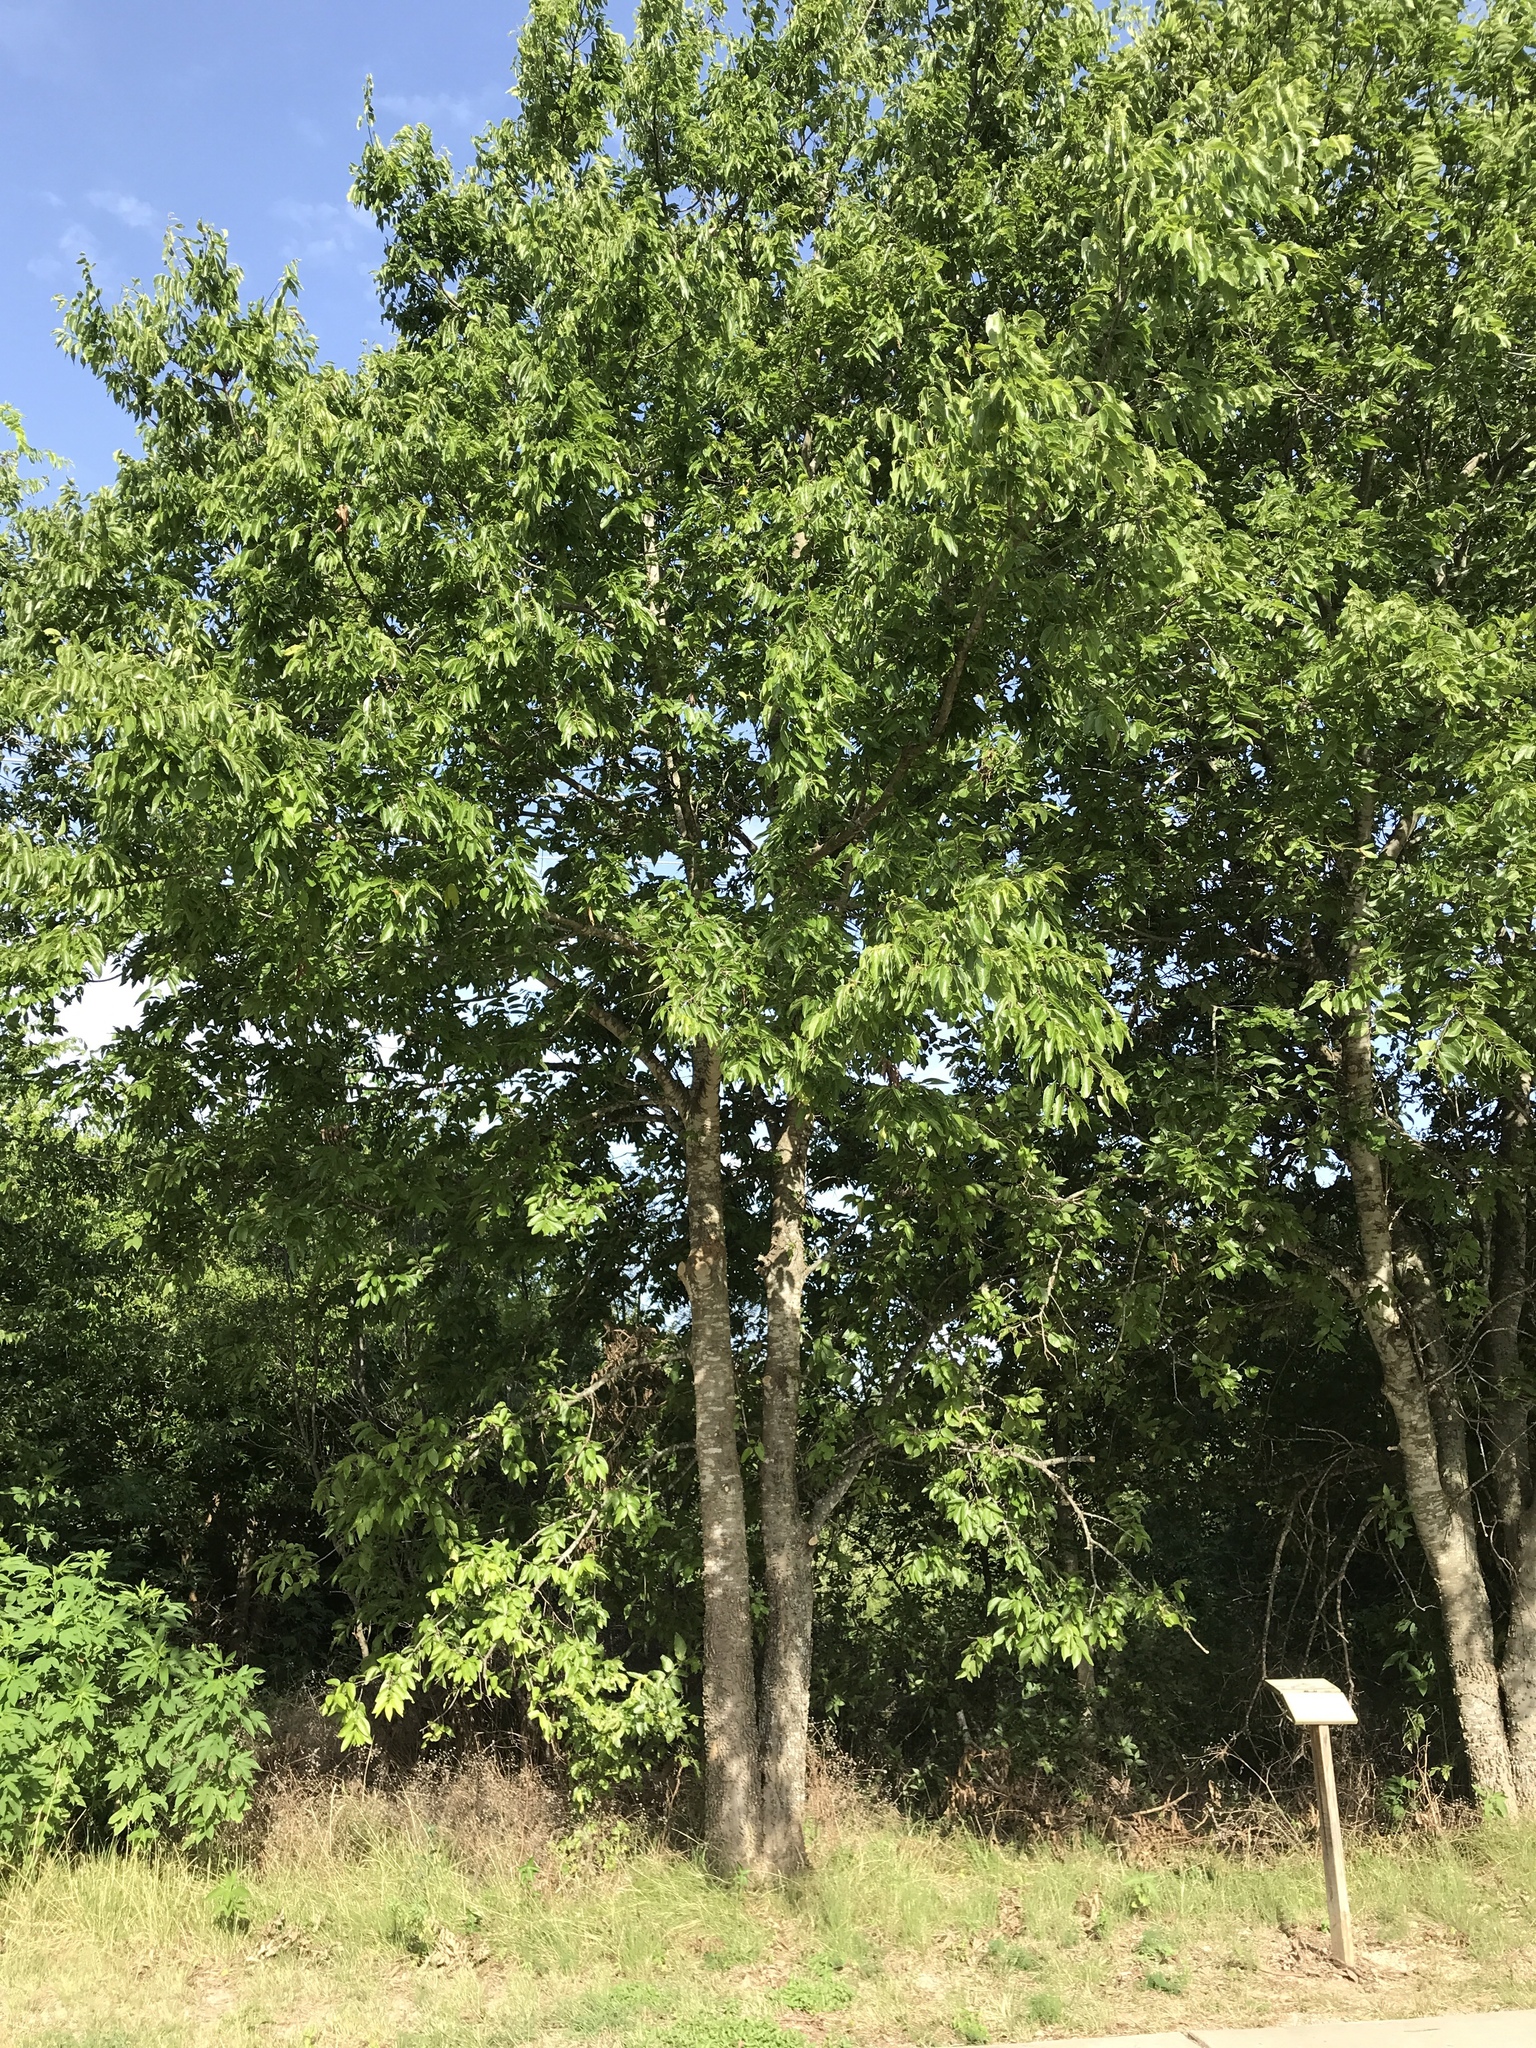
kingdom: Plantae
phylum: Tracheophyta
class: Magnoliopsida
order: Rosales
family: Cannabaceae
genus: Celtis
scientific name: Celtis laevigata
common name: Sugarberry
